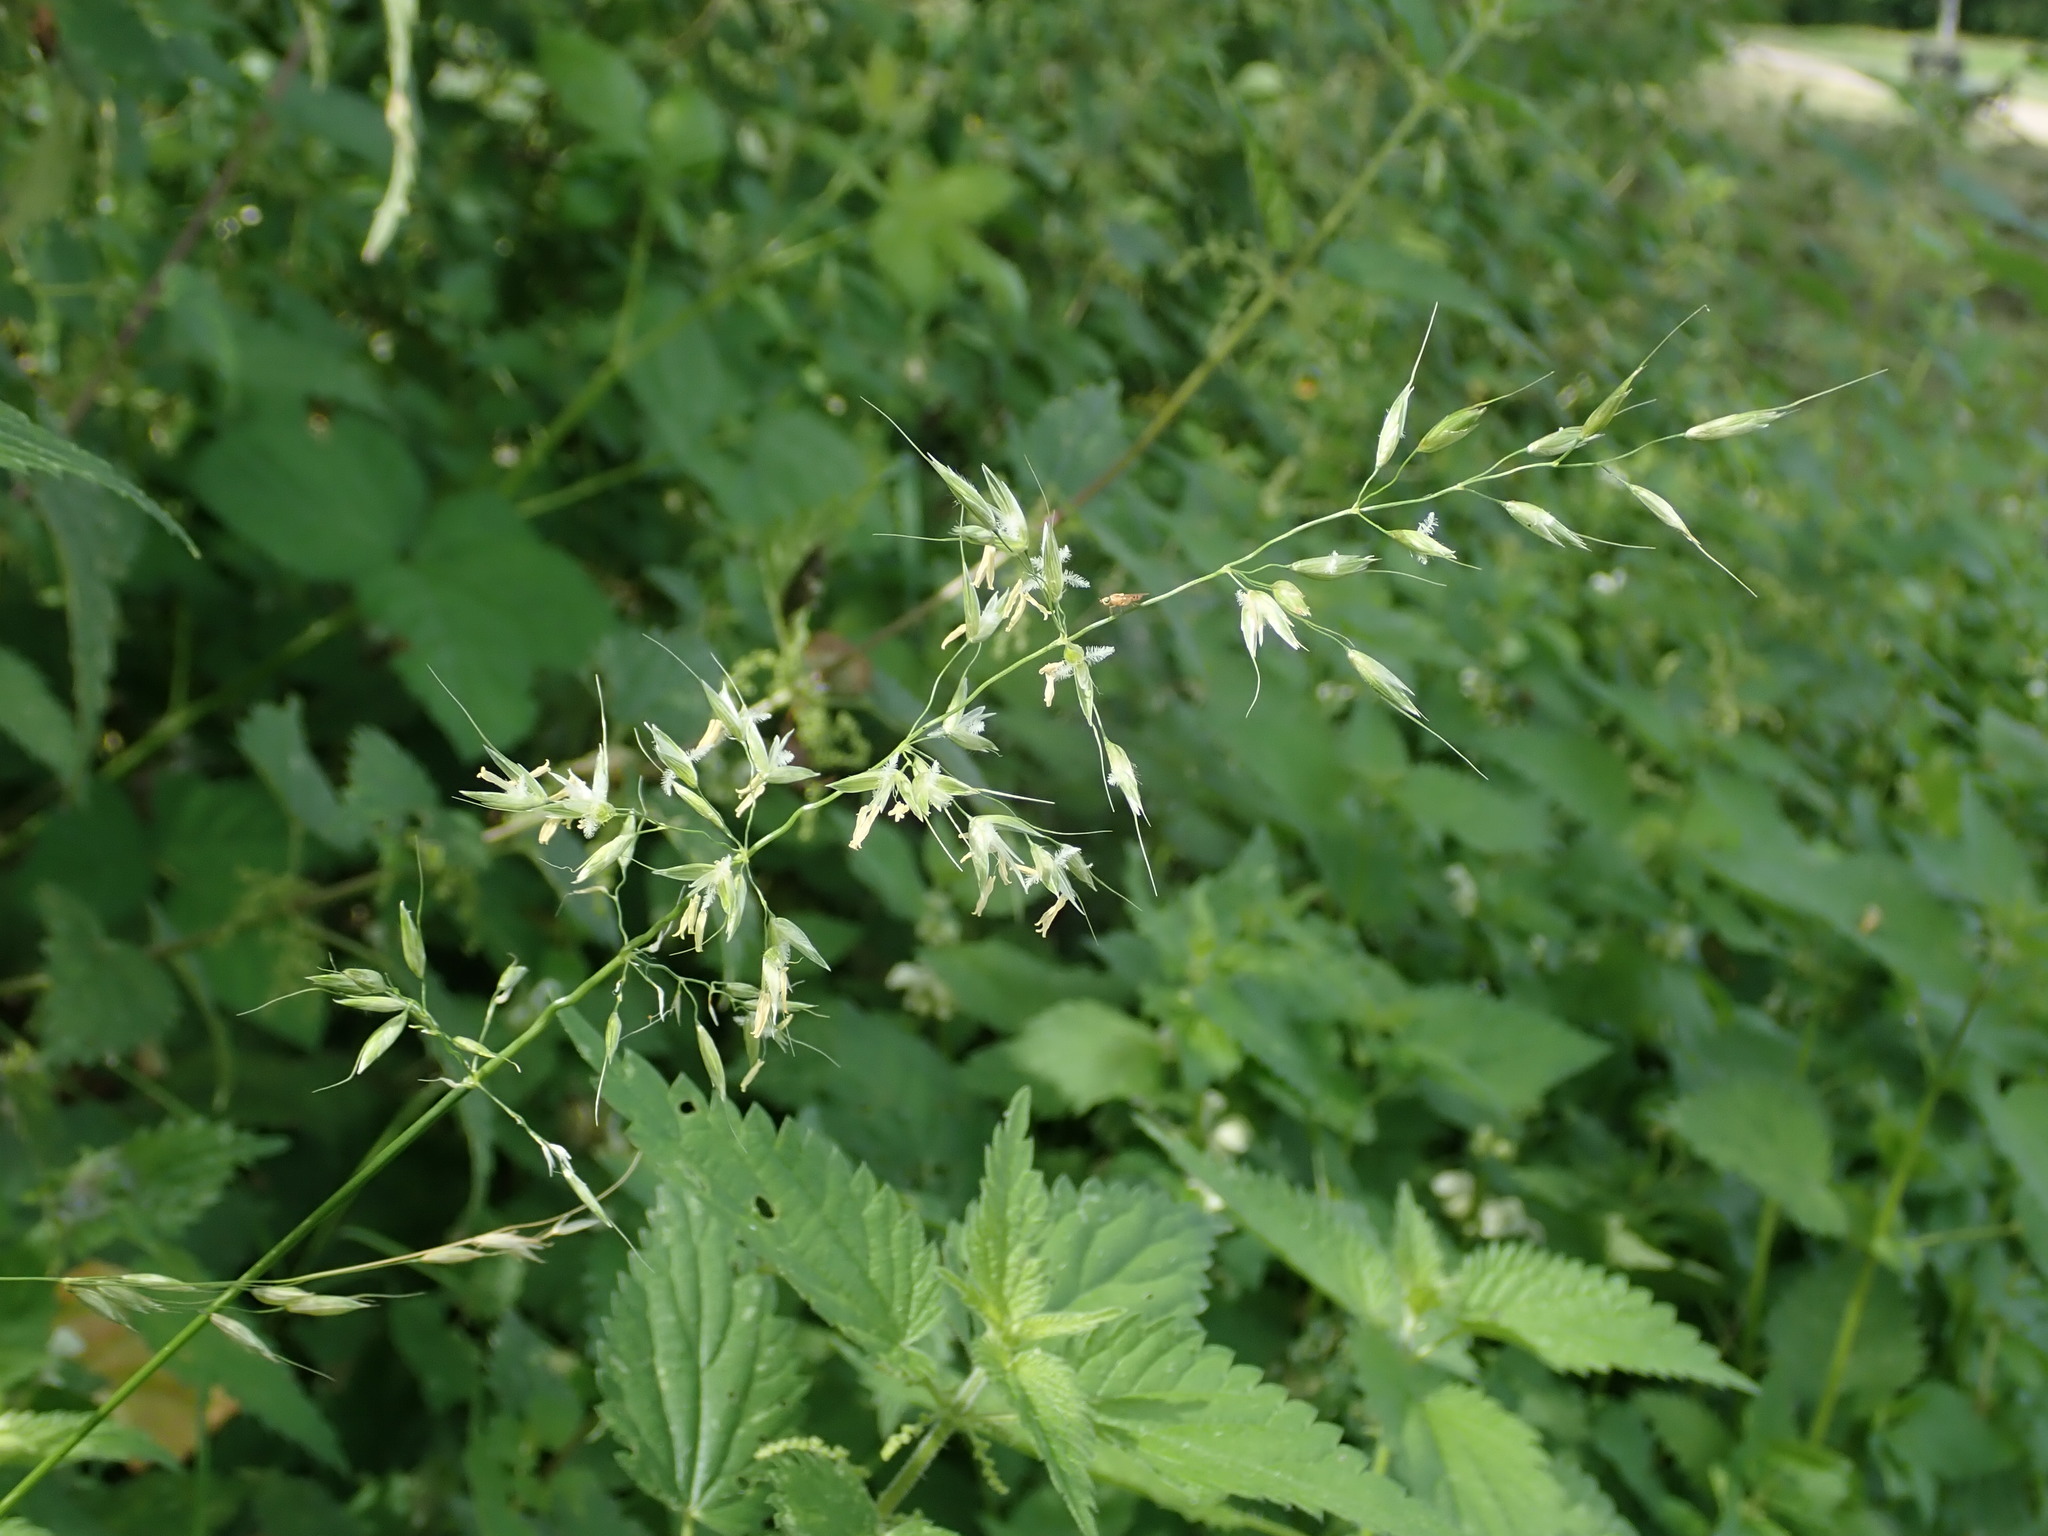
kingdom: Plantae
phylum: Tracheophyta
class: Liliopsida
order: Poales
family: Poaceae
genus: Arrhenatherum
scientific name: Arrhenatherum elatius
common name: Tall oatgrass
